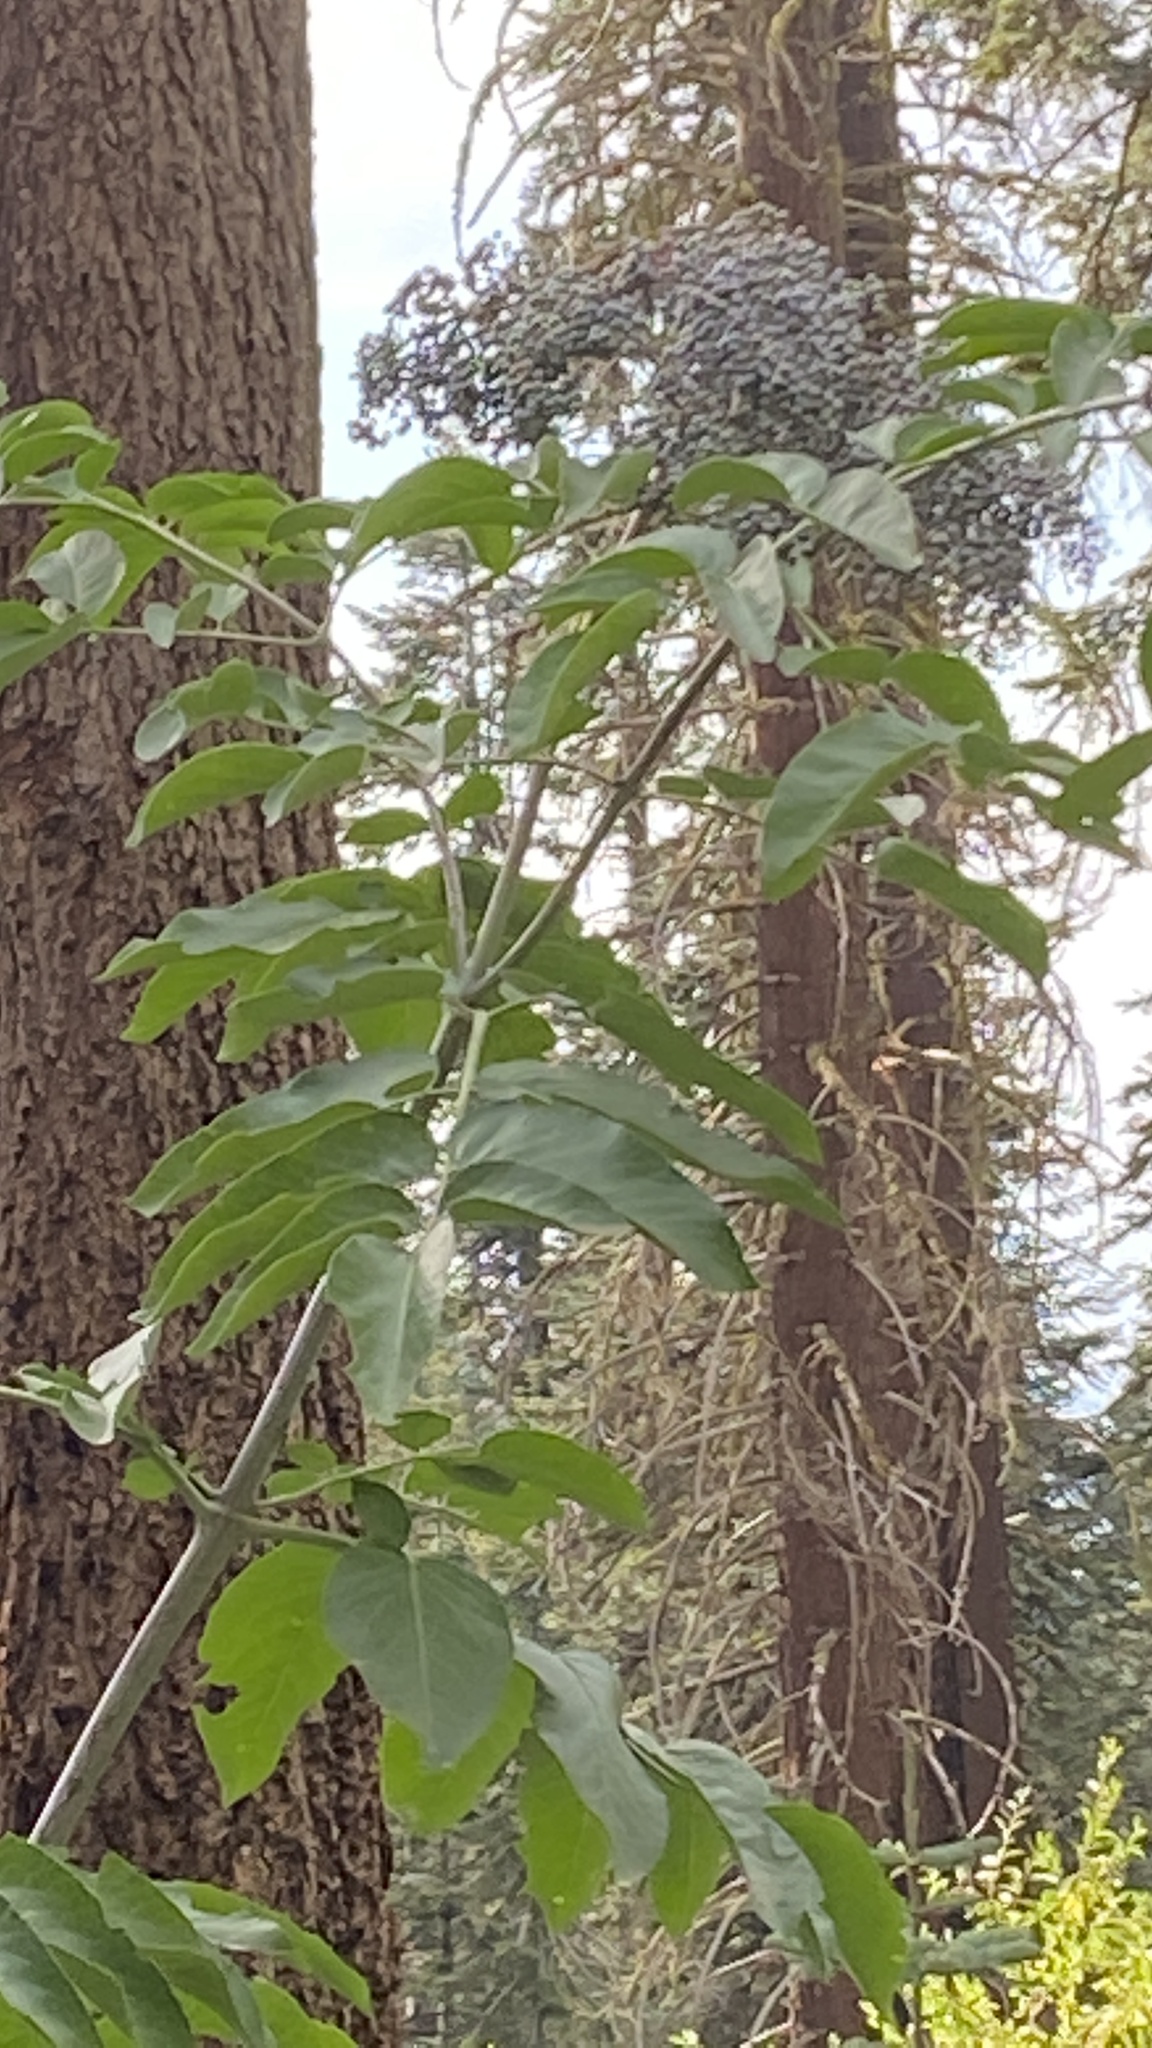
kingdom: Plantae
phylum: Tracheophyta
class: Magnoliopsida
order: Dipsacales
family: Viburnaceae
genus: Sambucus
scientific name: Sambucus cerulea
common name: Blue elder
